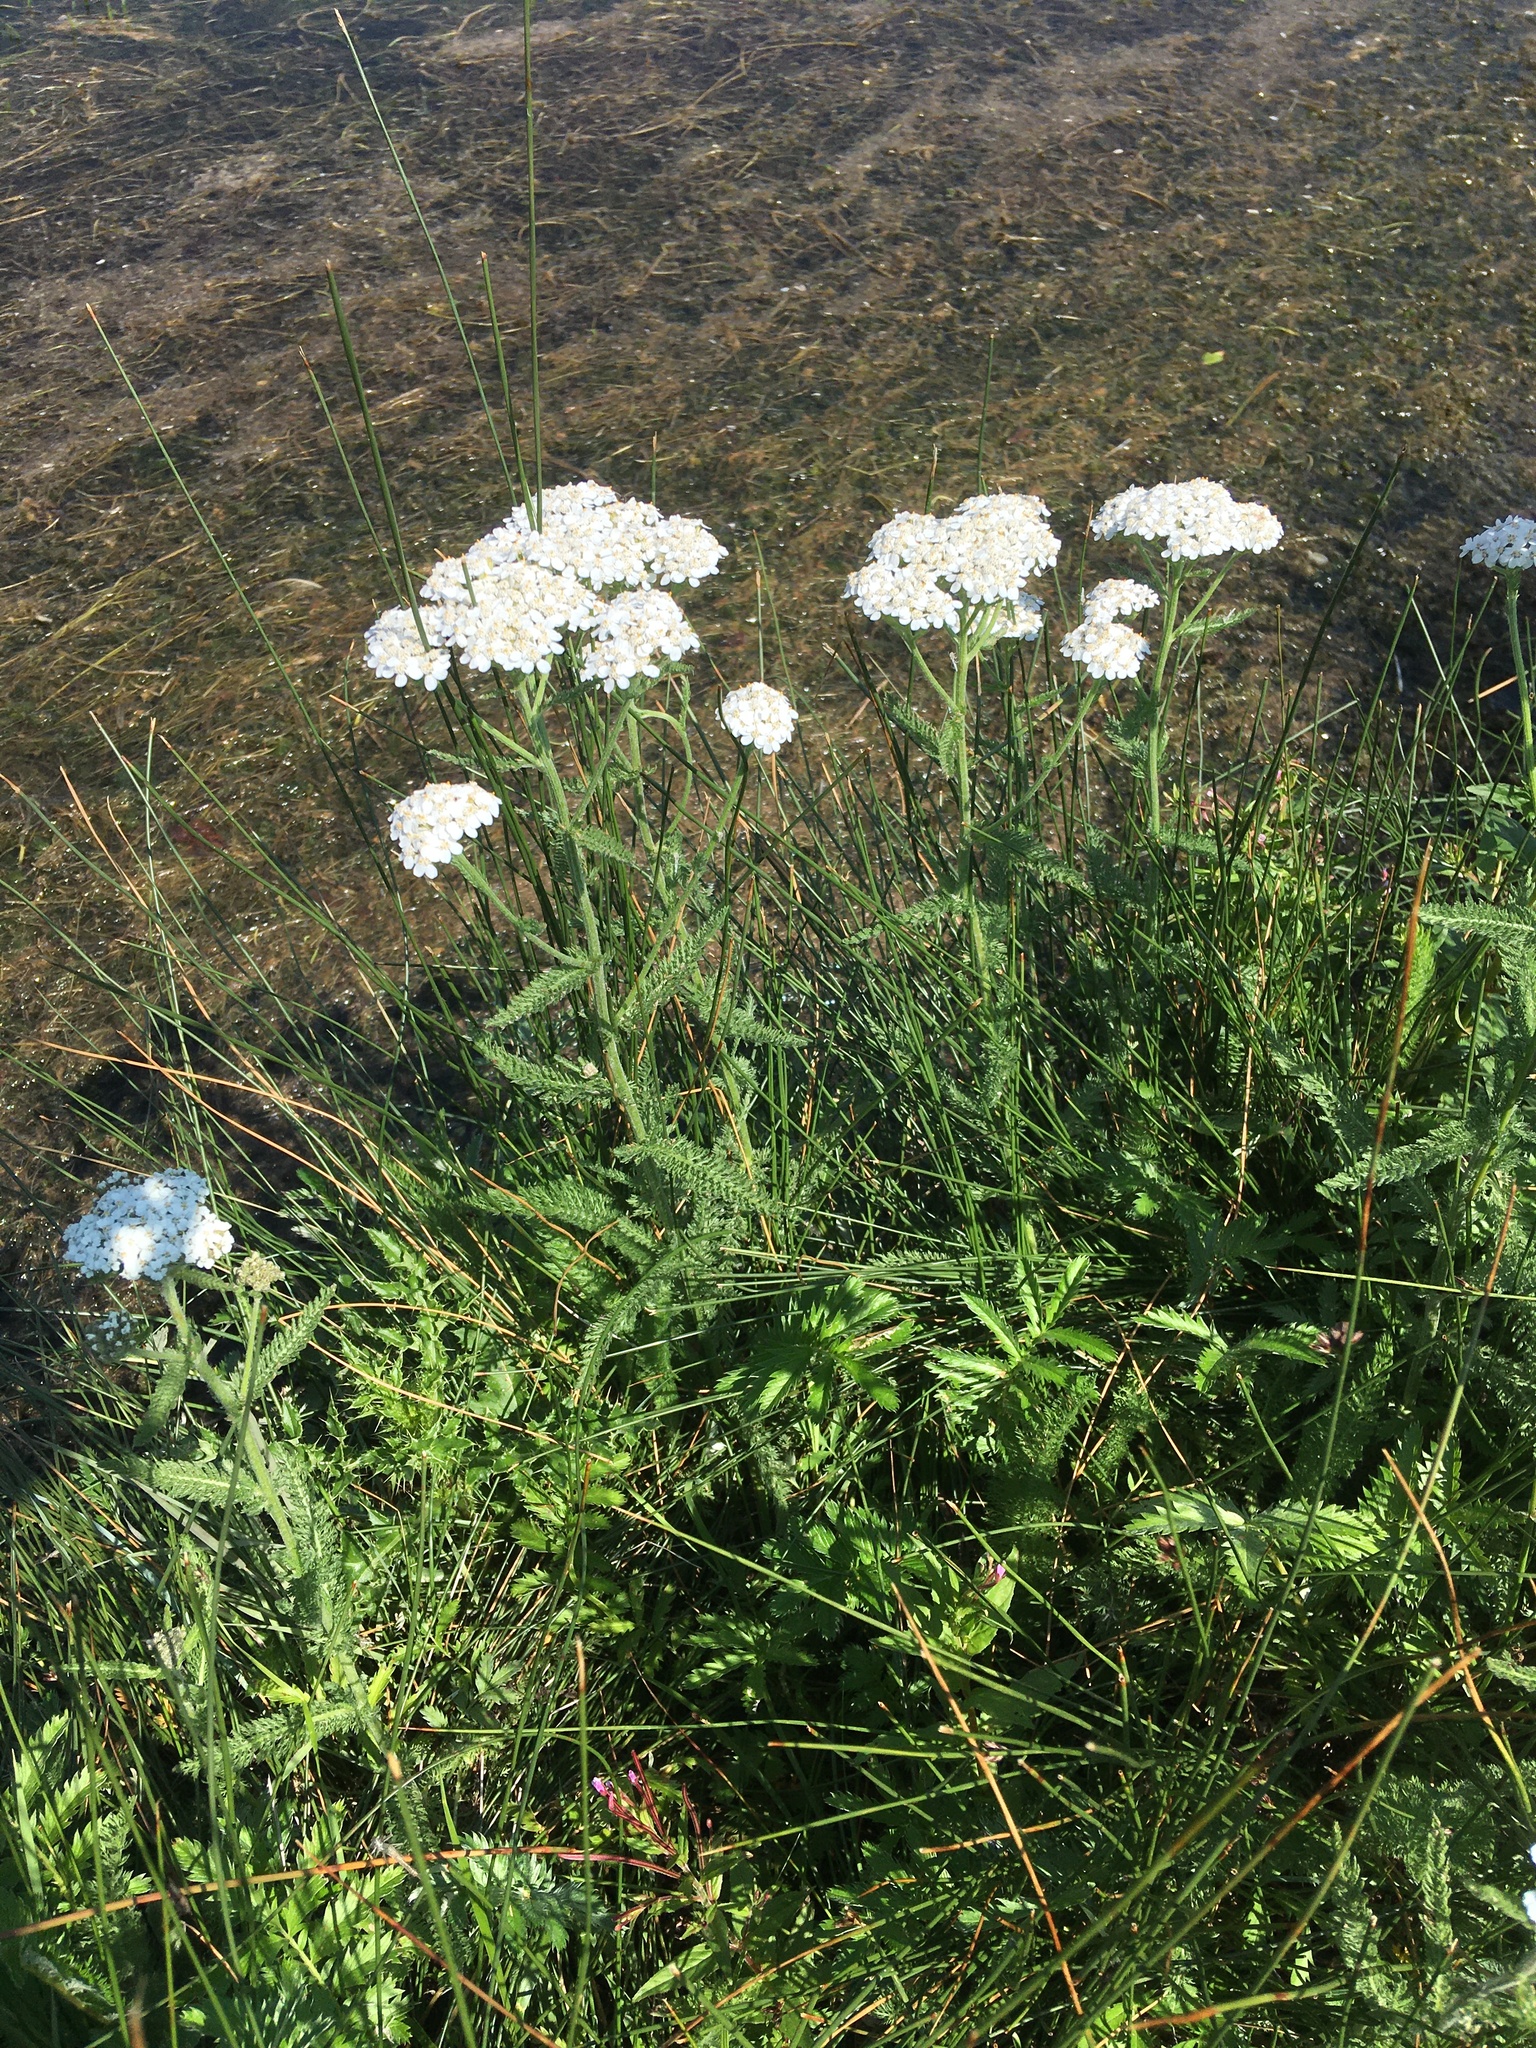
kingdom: Plantae
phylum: Tracheophyta
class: Magnoliopsida
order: Asterales
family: Asteraceae
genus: Achillea
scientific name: Achillea millefolium
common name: Yarrow
